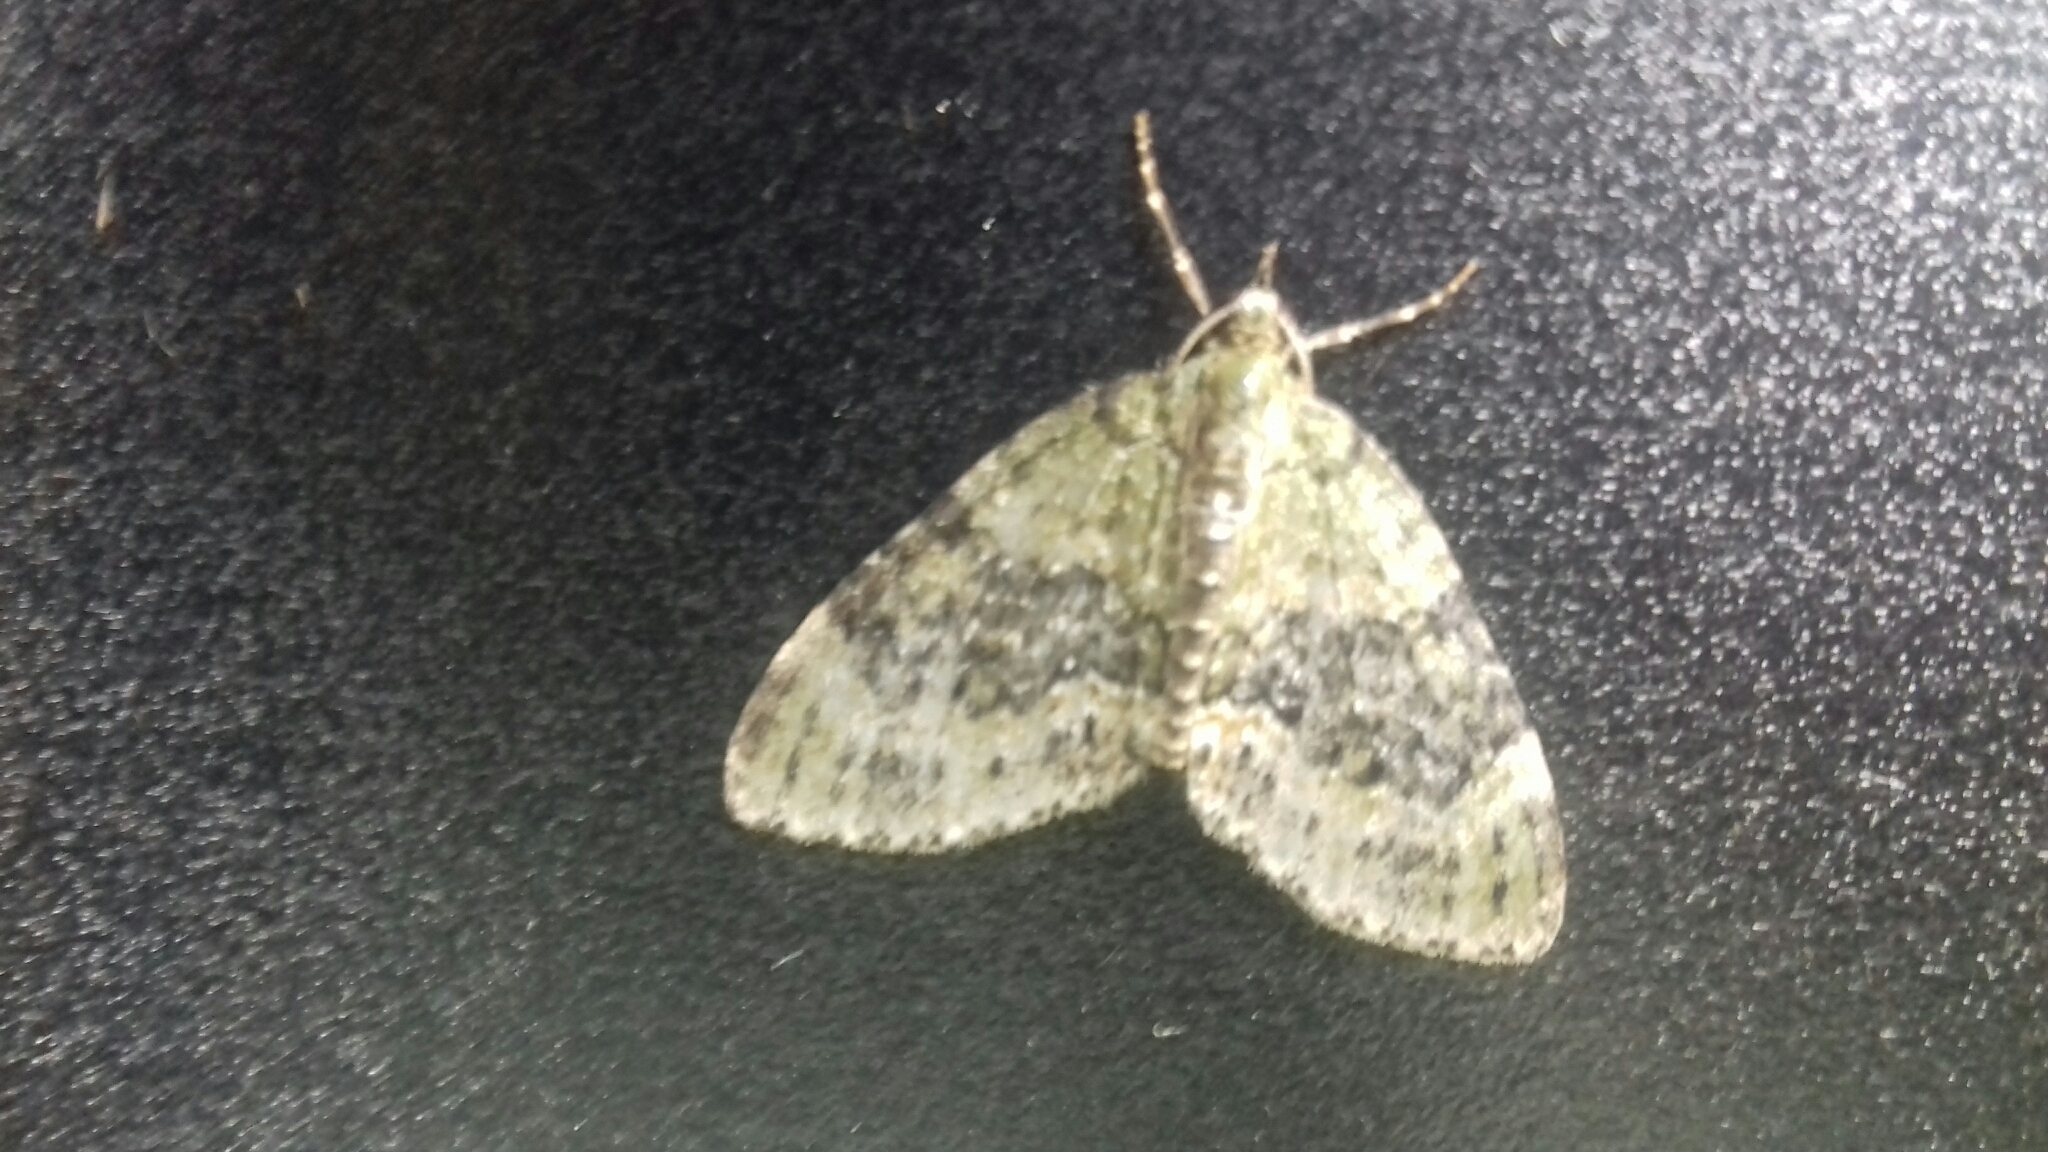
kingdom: Animalia
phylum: Arthropoda
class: Insecta
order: Lepidoptera
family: Geometridae
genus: Acasis
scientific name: Acasis viretata
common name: Yellow-barred brindle
